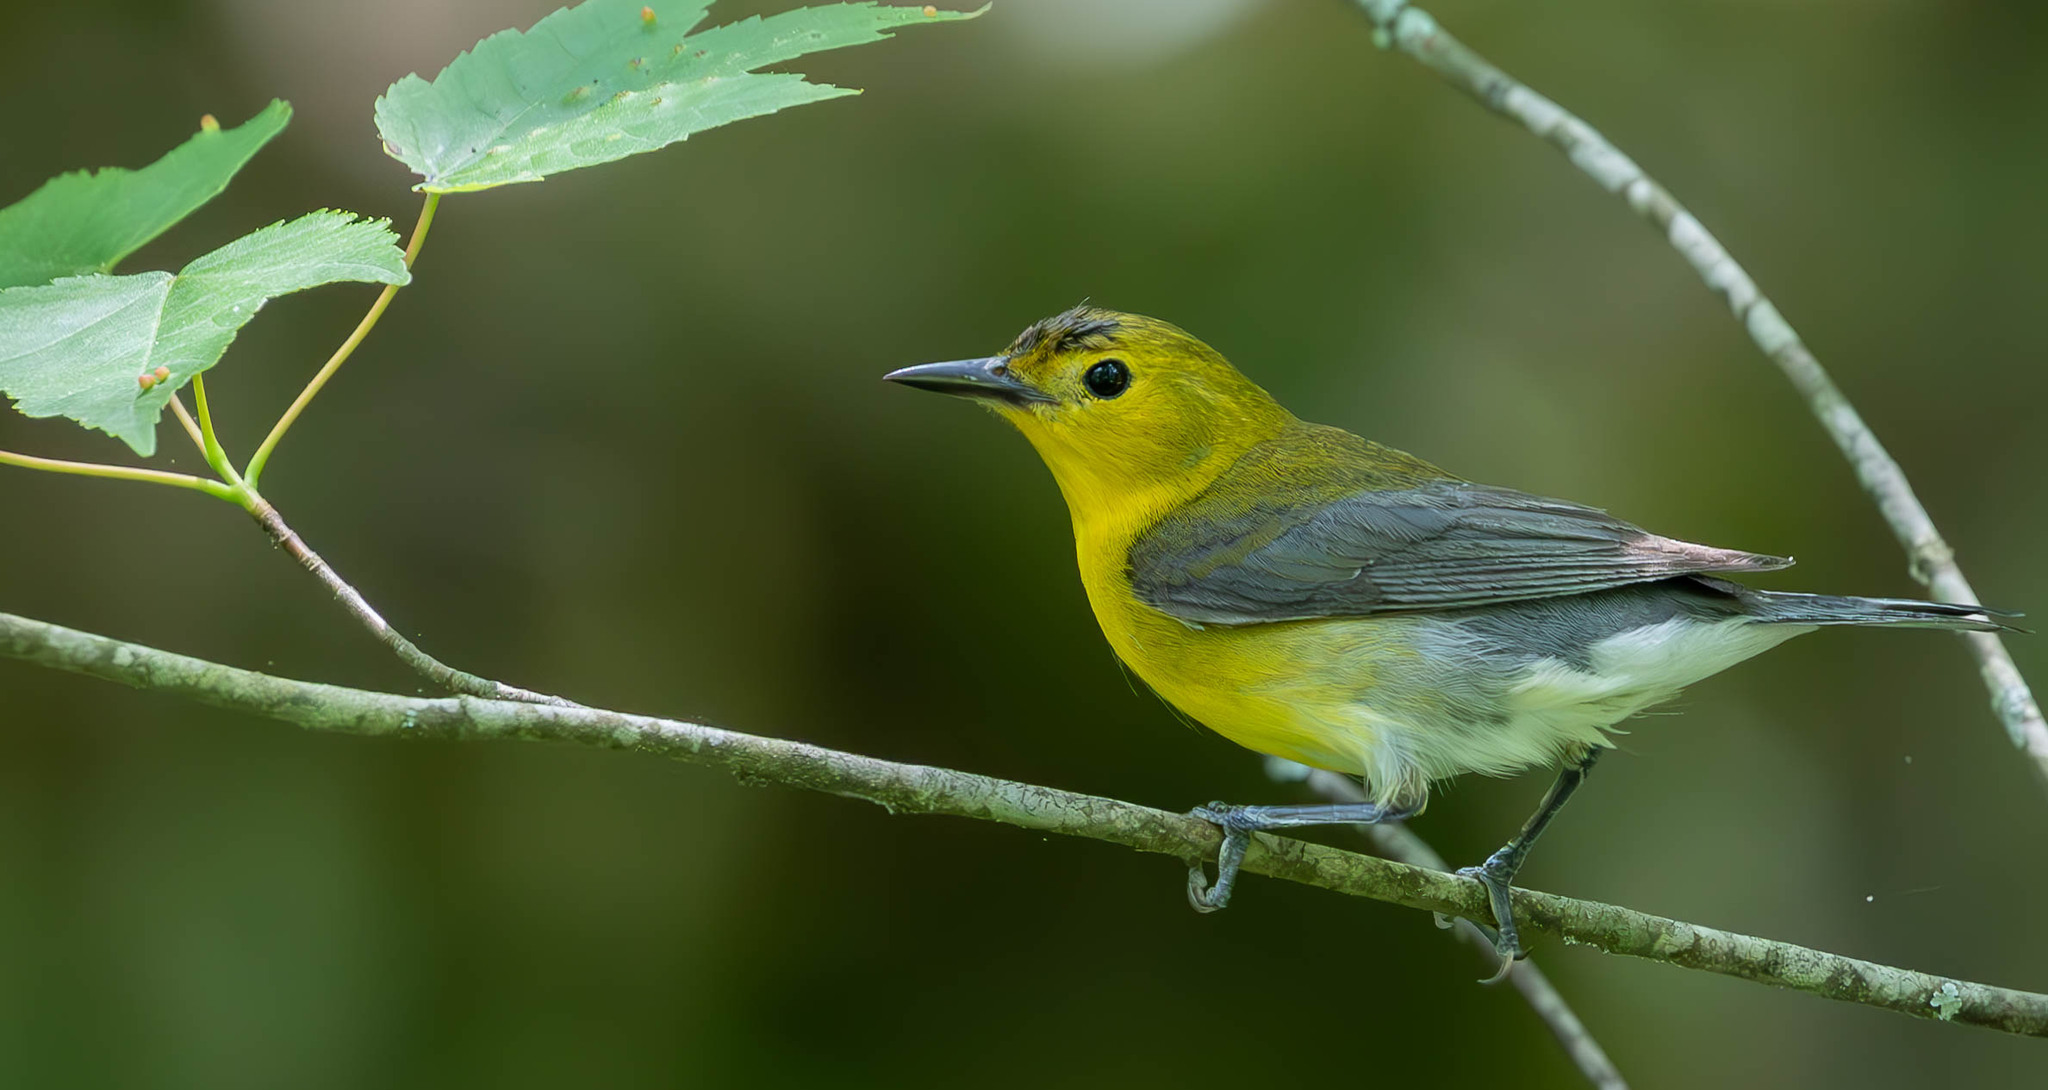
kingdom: Animalia
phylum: Chordata
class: Aves
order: Passeriformes
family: Parulidae
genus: Protonotaria
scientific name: Protonotaria citrea
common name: Prothonotary warbler
